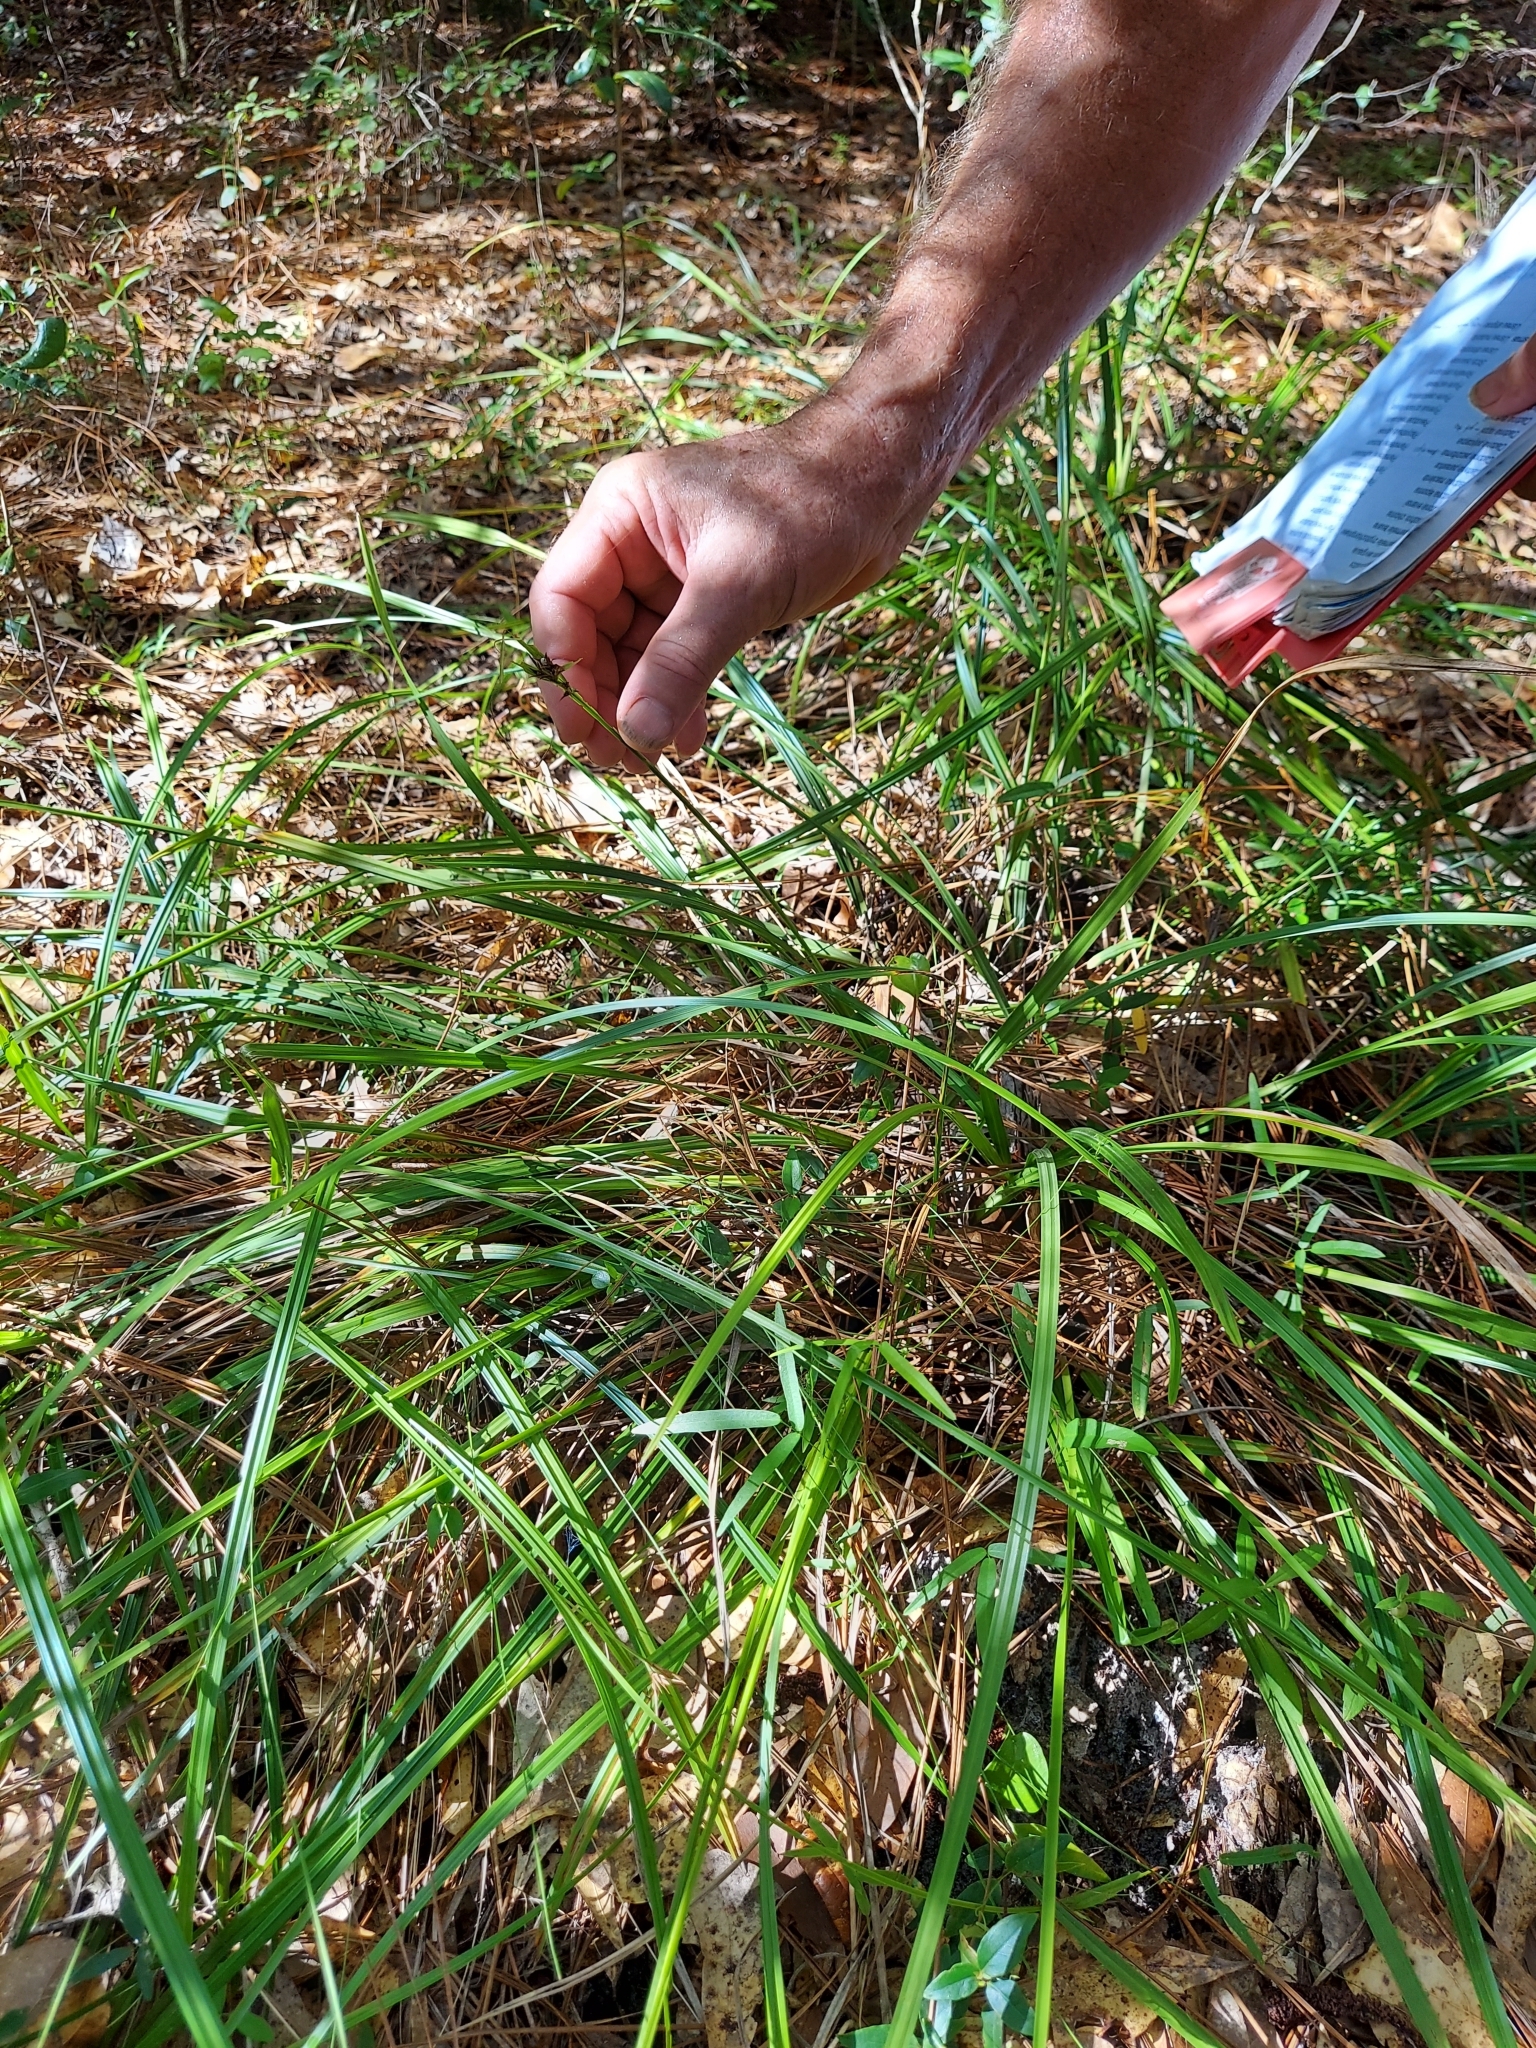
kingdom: Plantae
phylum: Tracheophyta
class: Liliopsida
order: Poales
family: Cyperaceae
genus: Scleria
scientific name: Scleria triglomerata
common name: Whip nutrush
